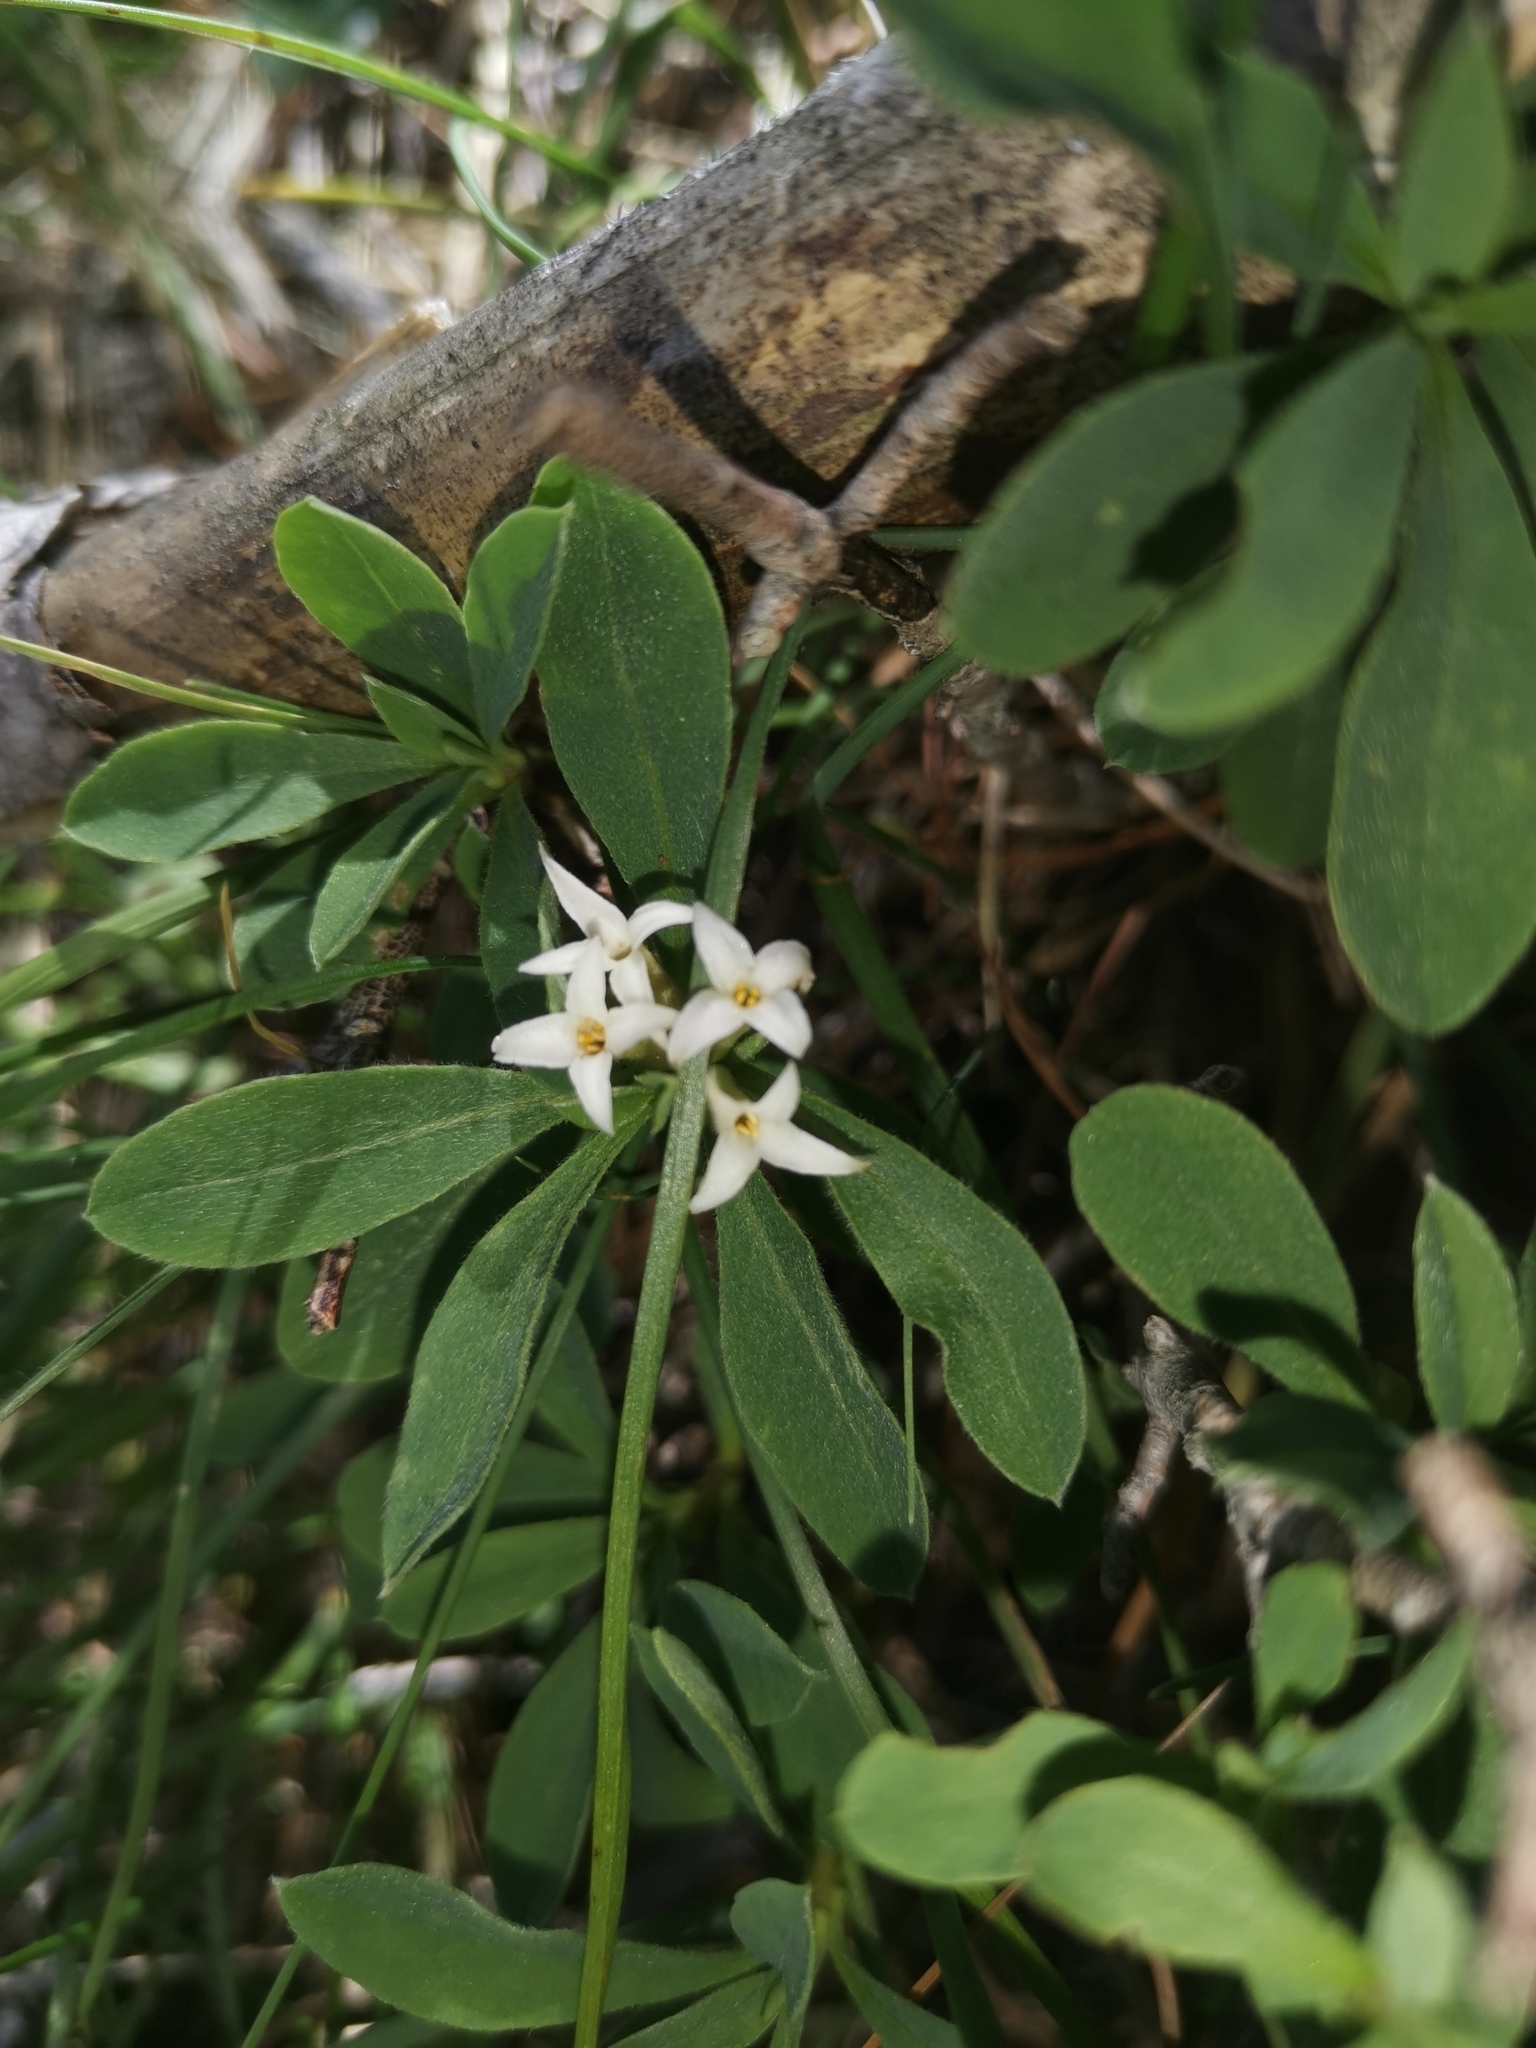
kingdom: Plantae
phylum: Tracheophyta
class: Magnoliopsida
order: Malvales
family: Thymelaeaceae
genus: Daphne
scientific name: Daphne alpina
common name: Alpine daphne
